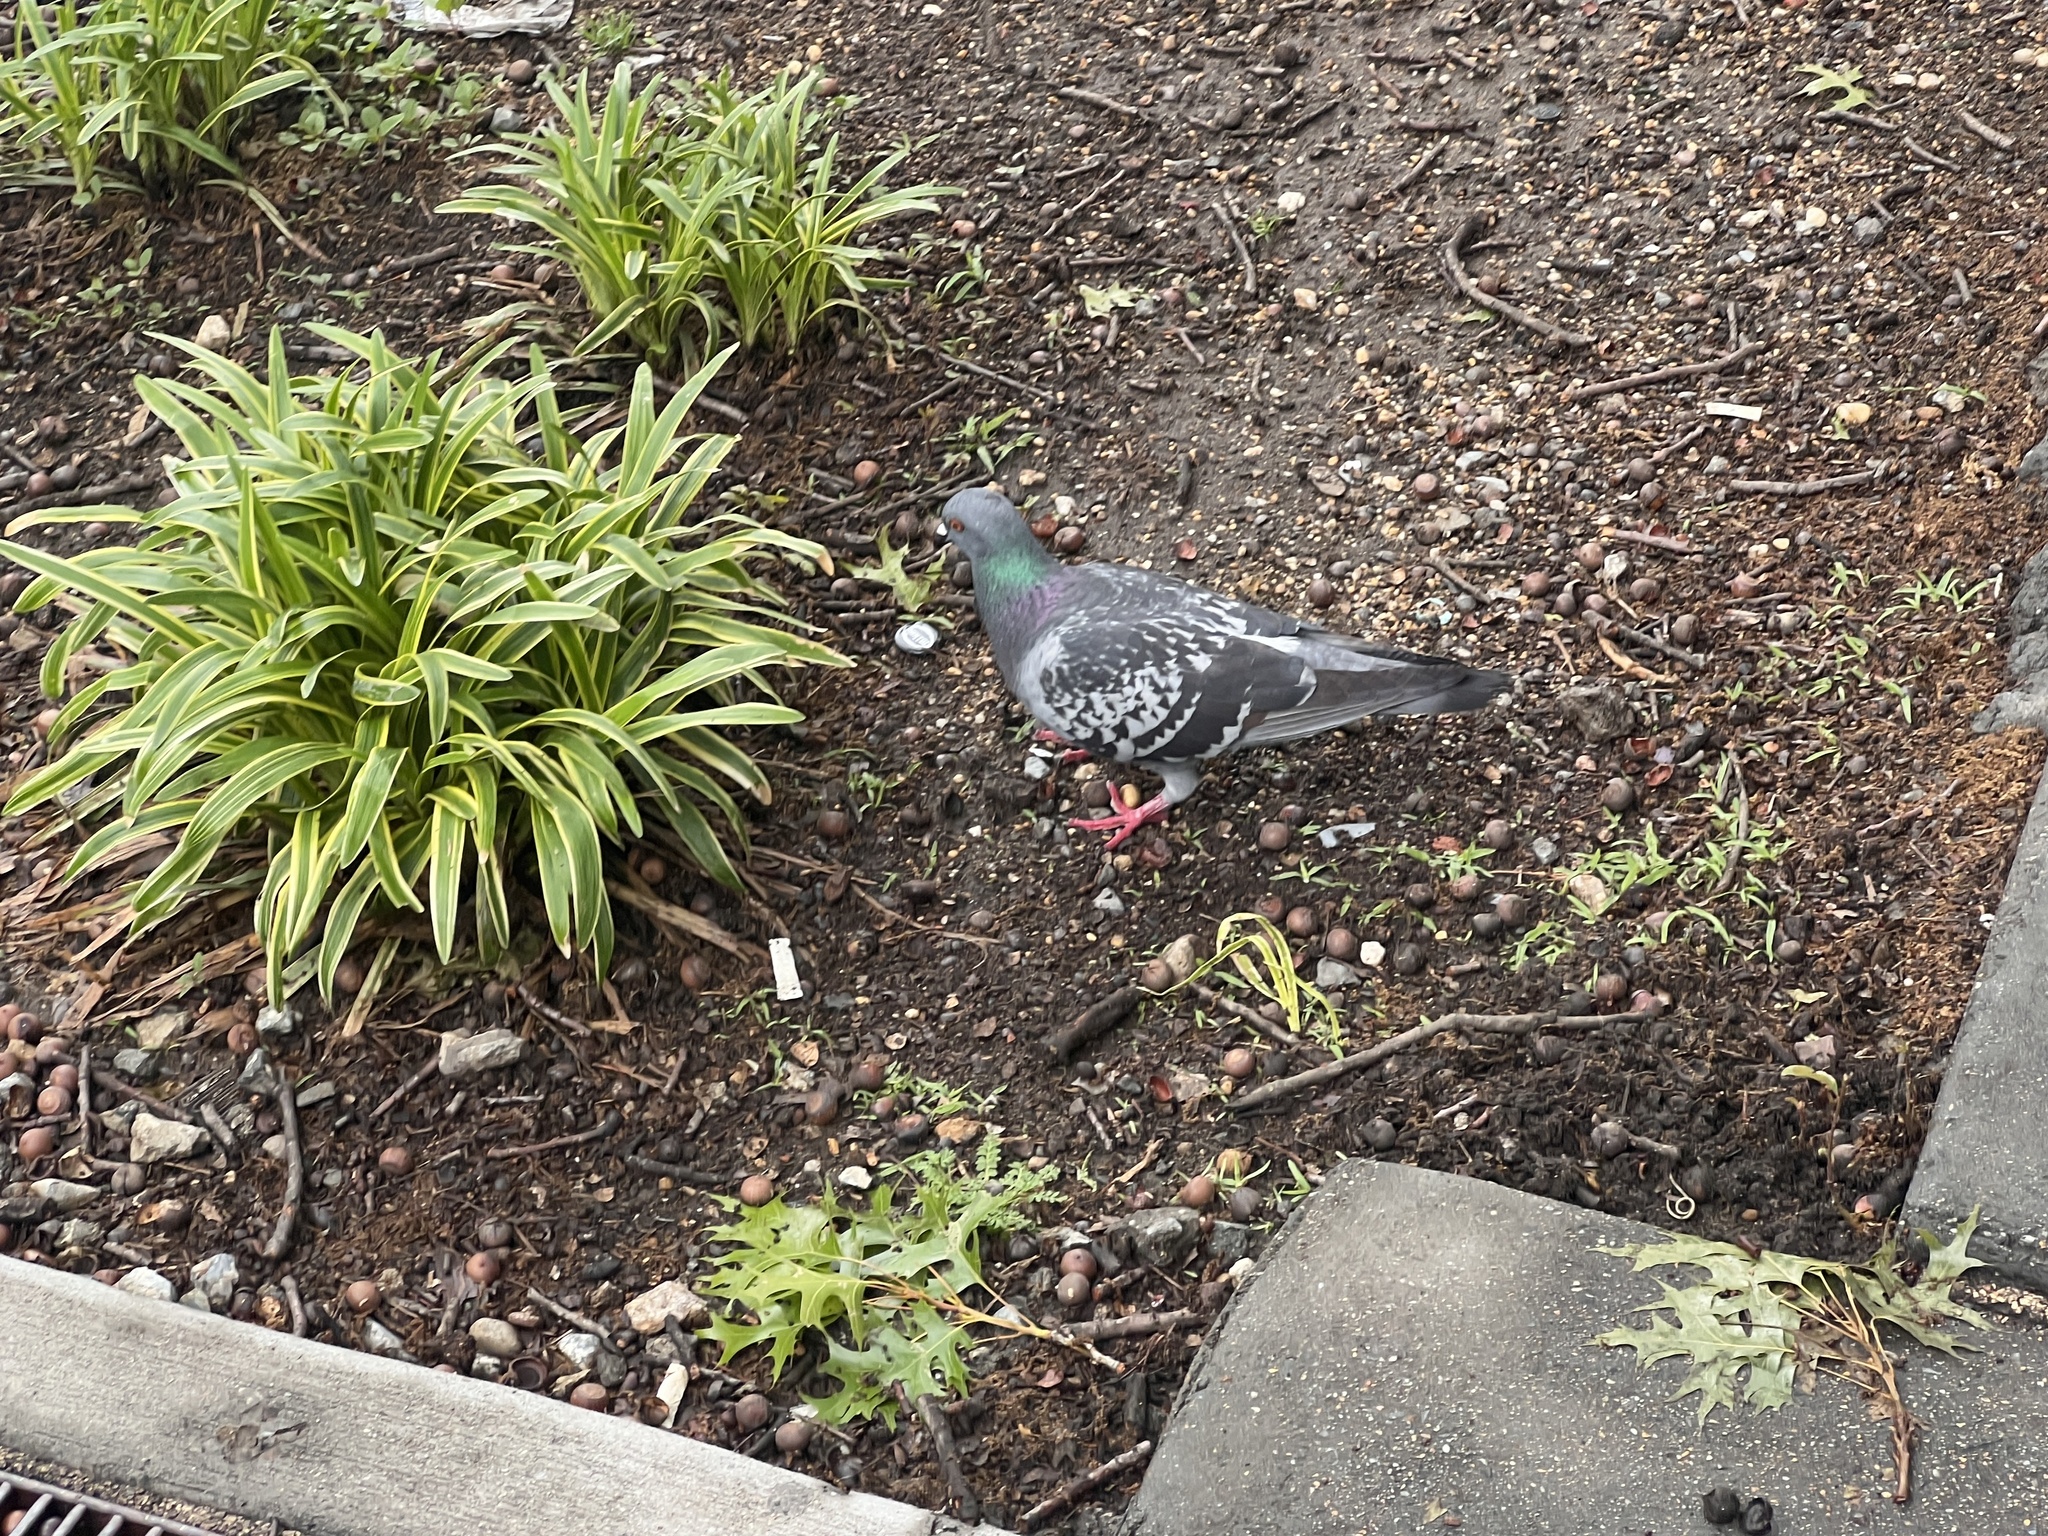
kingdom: Animalia
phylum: Chordata
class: Aves
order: Columbiformes
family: Columbidae
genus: Columba
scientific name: Columba livia
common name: Rock pigeon
